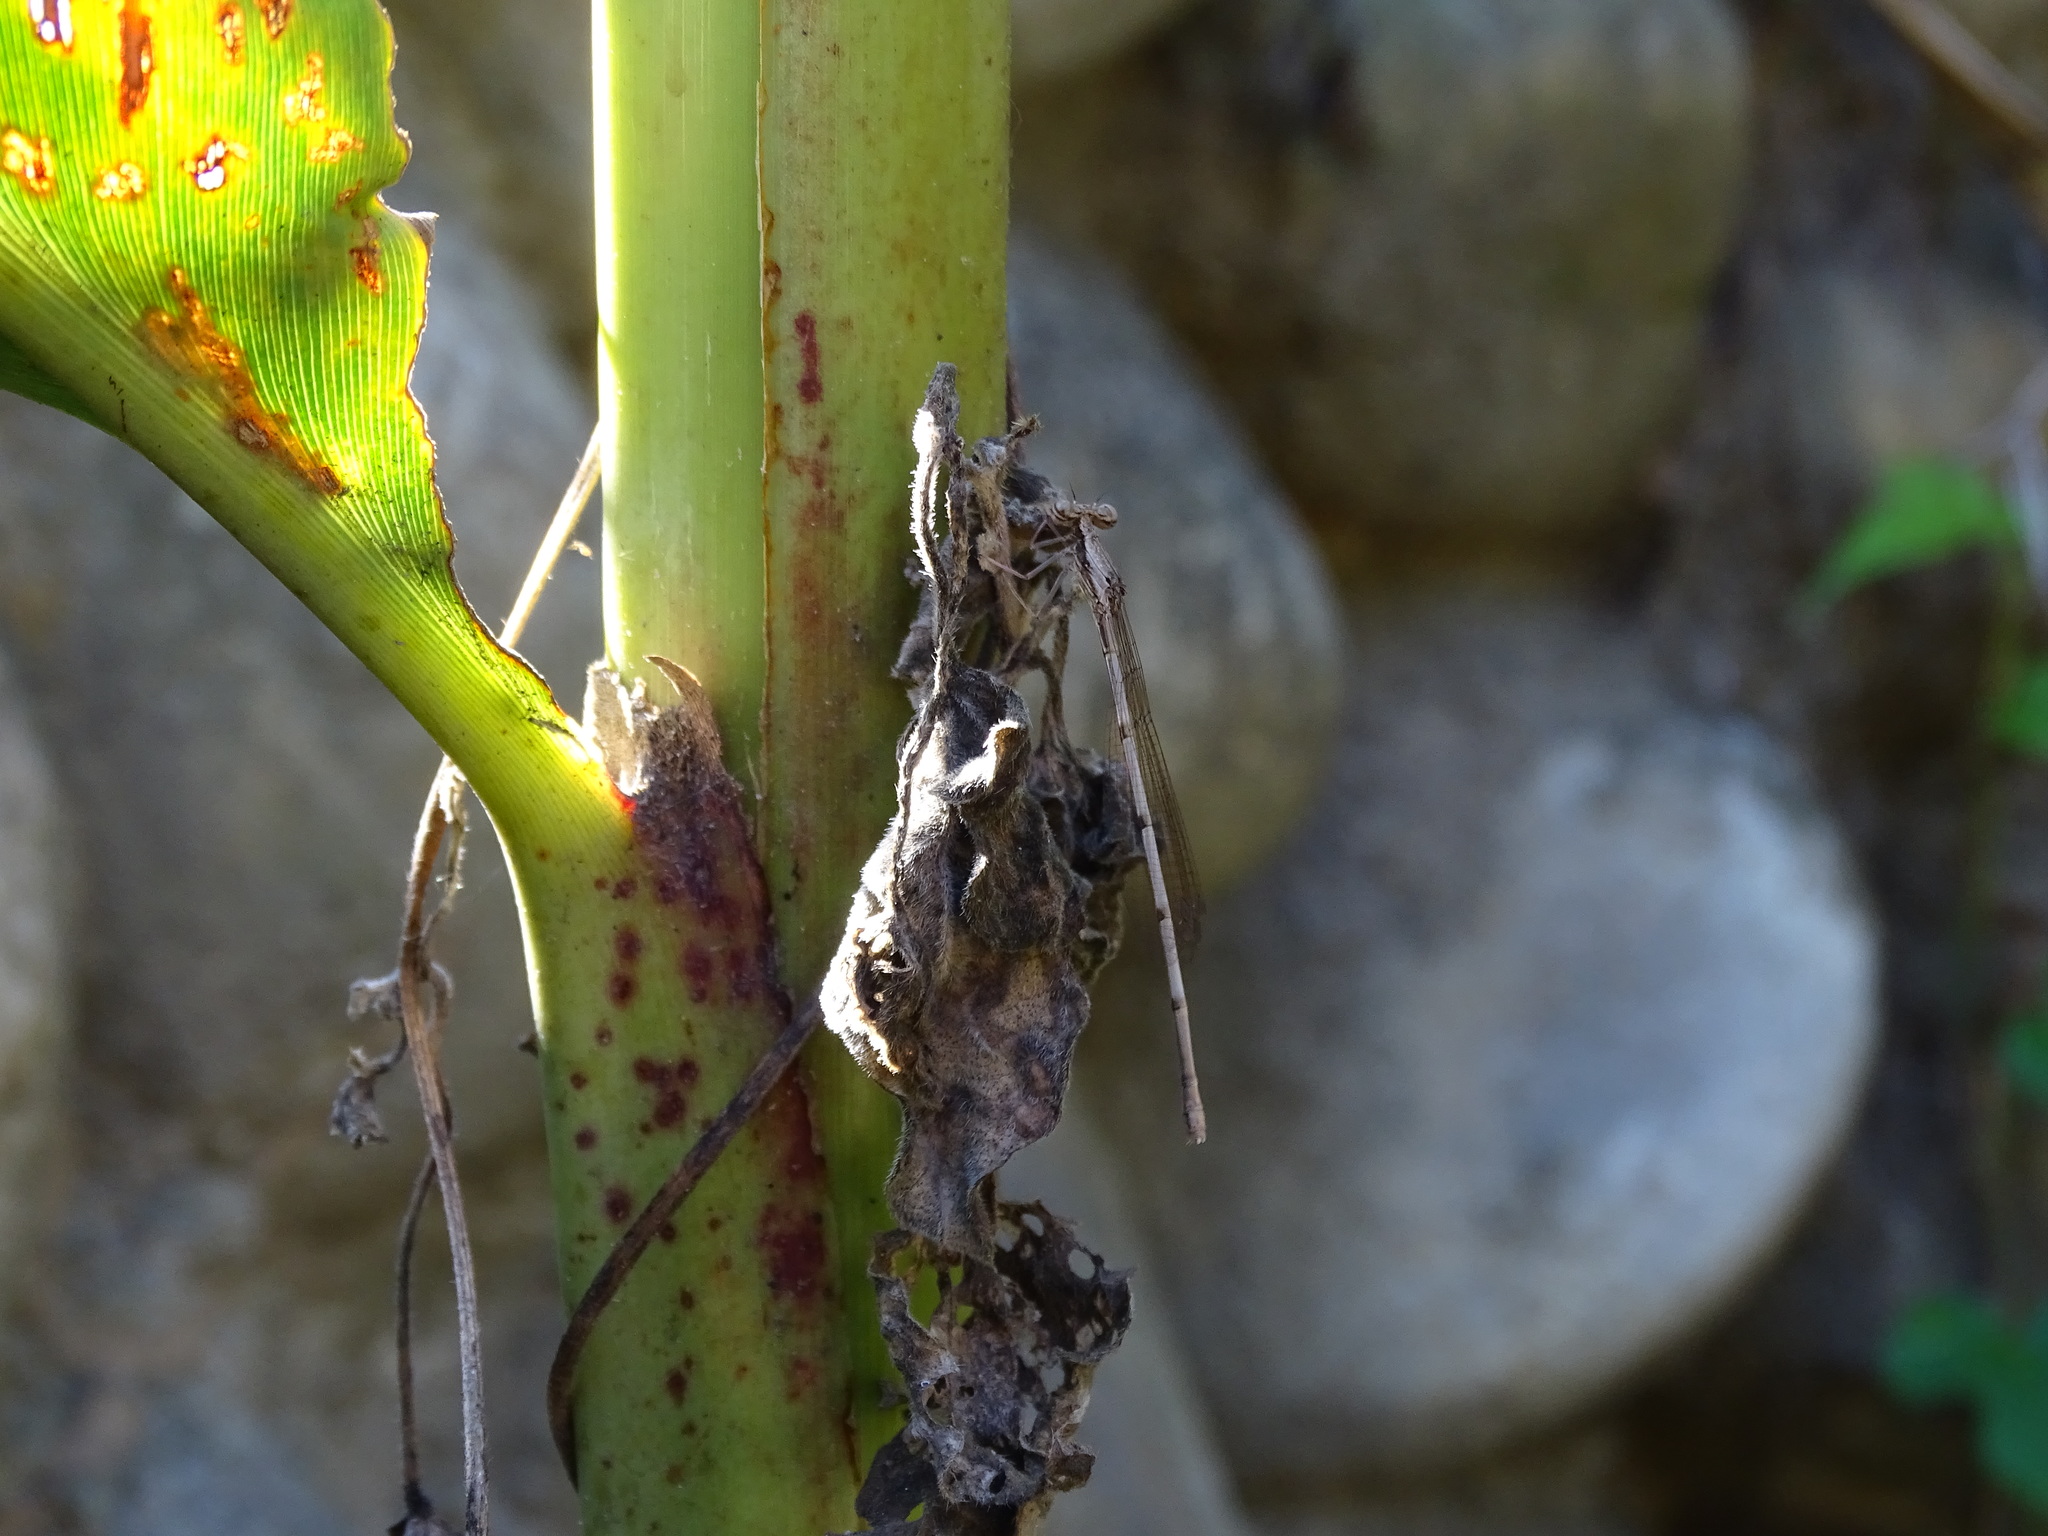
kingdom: Animalia
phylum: Arthropoda
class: Insecta
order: Odonata
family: Platycnemididae
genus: Copera
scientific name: Copera marginipes
